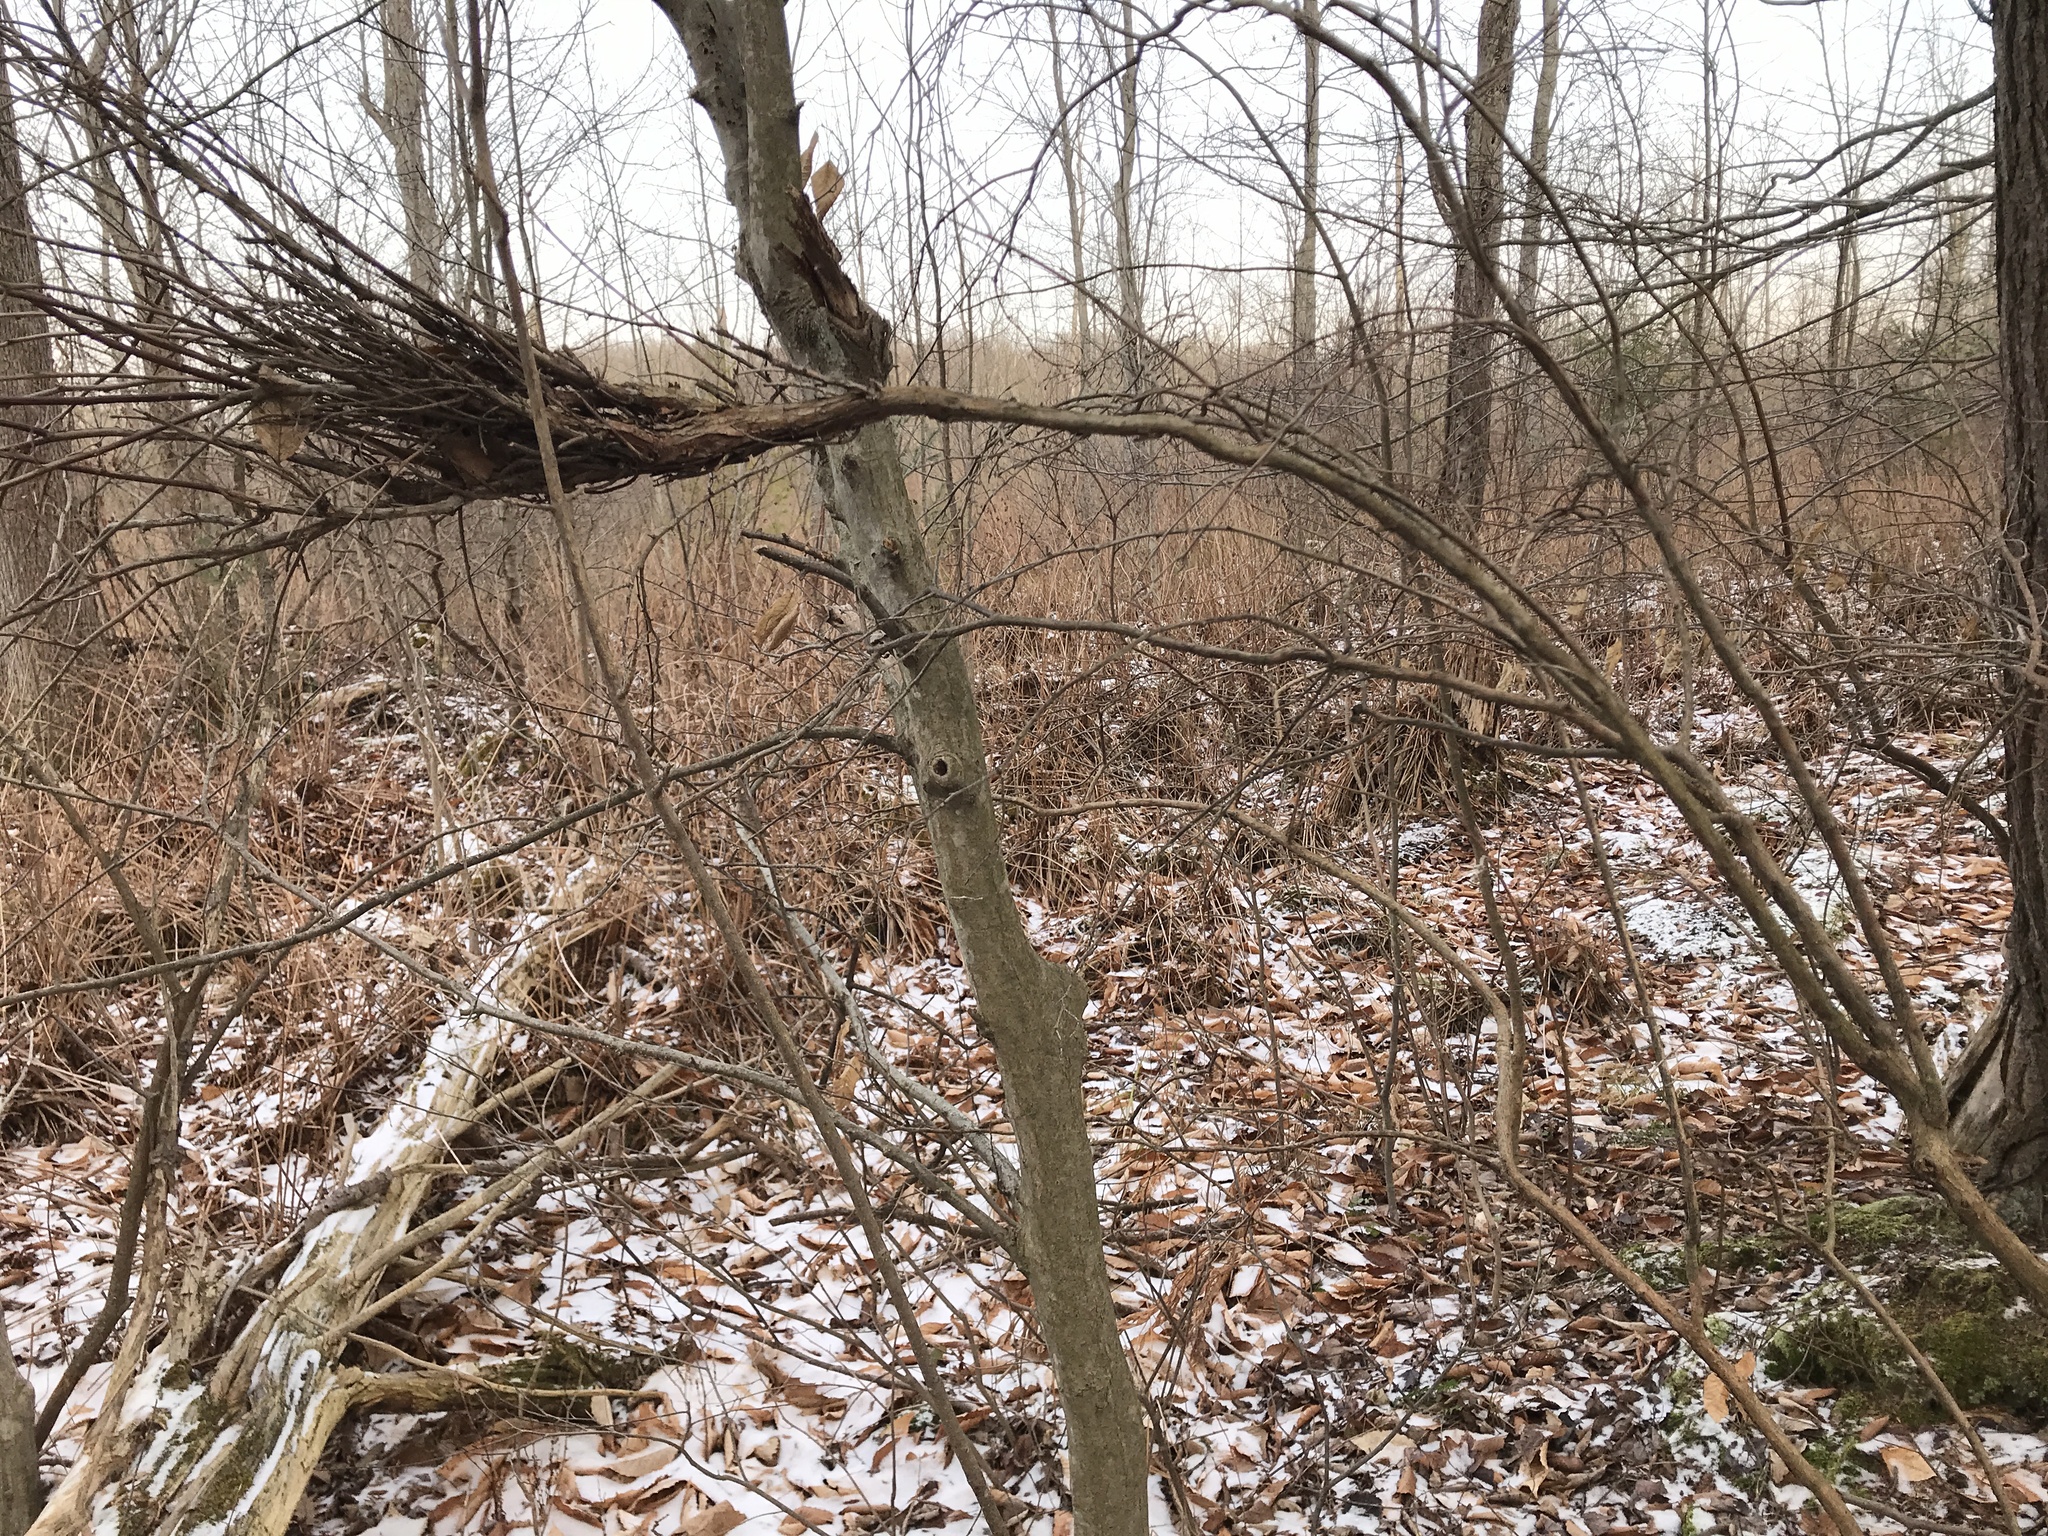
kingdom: Fungi
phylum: Basidiomycota
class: Pucciniomycetes
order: Pucciniales
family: Pucciniastraceae
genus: Calyptospora
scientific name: Calyptospora columnaris
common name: Huckleberry broom rust fungus
